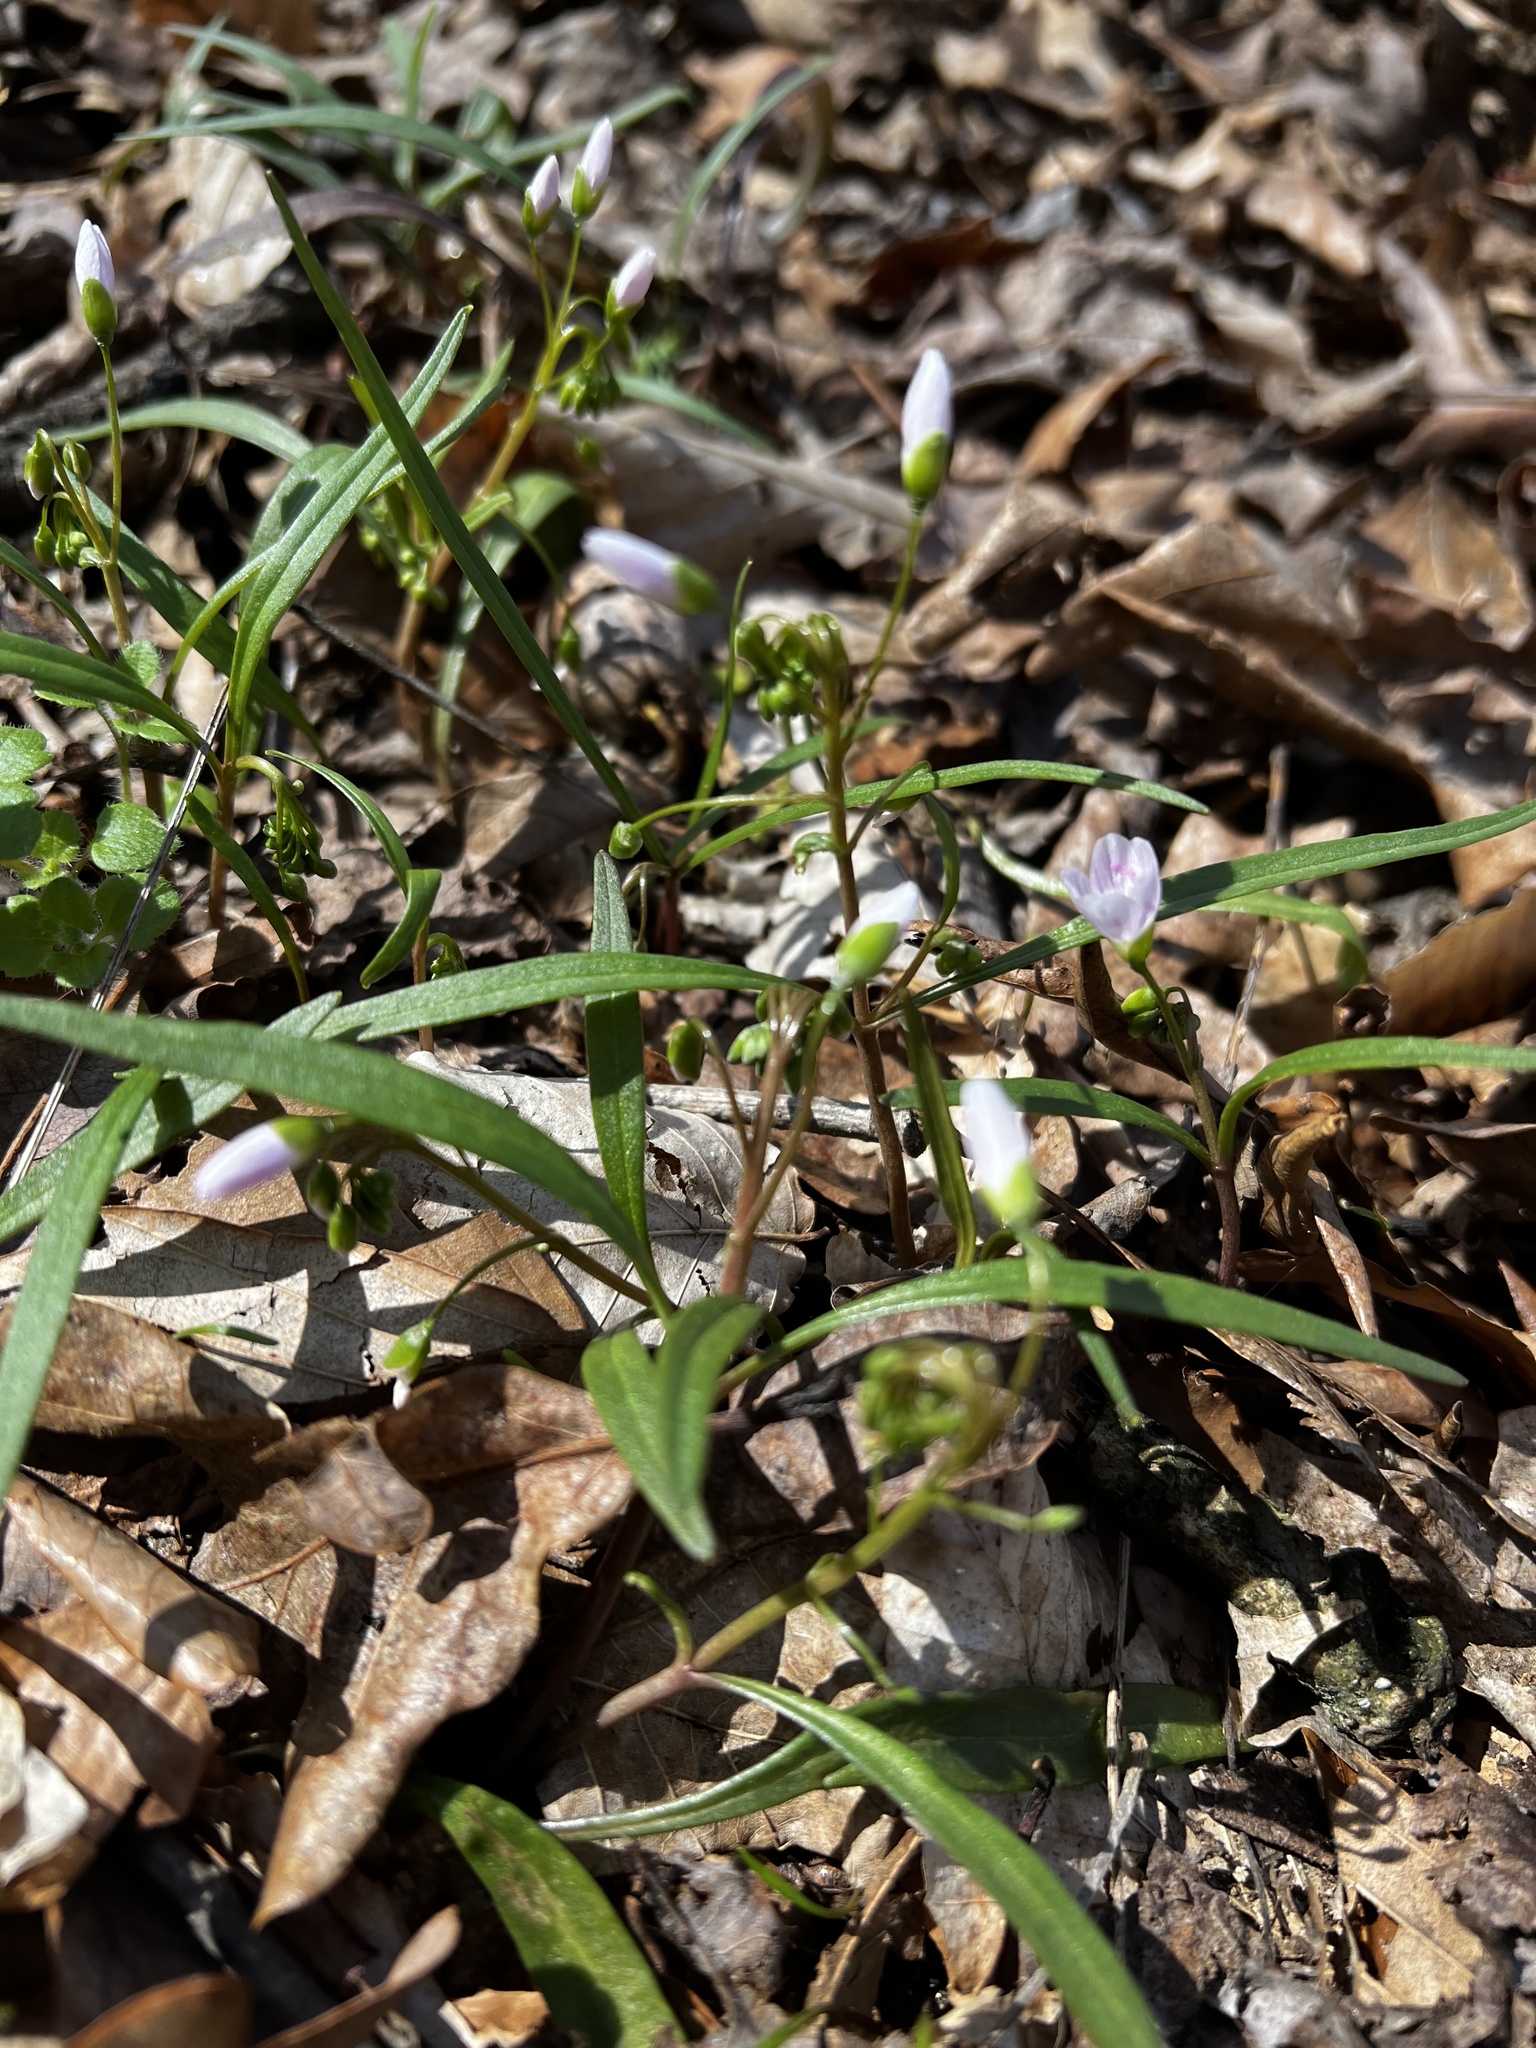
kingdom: Plantae
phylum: Tracheophyta
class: Magnoliopsida
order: Caryophyllales
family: Montiaceae
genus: Claytonia
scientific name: Claytonia virginica
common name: Virginia springbeauty
